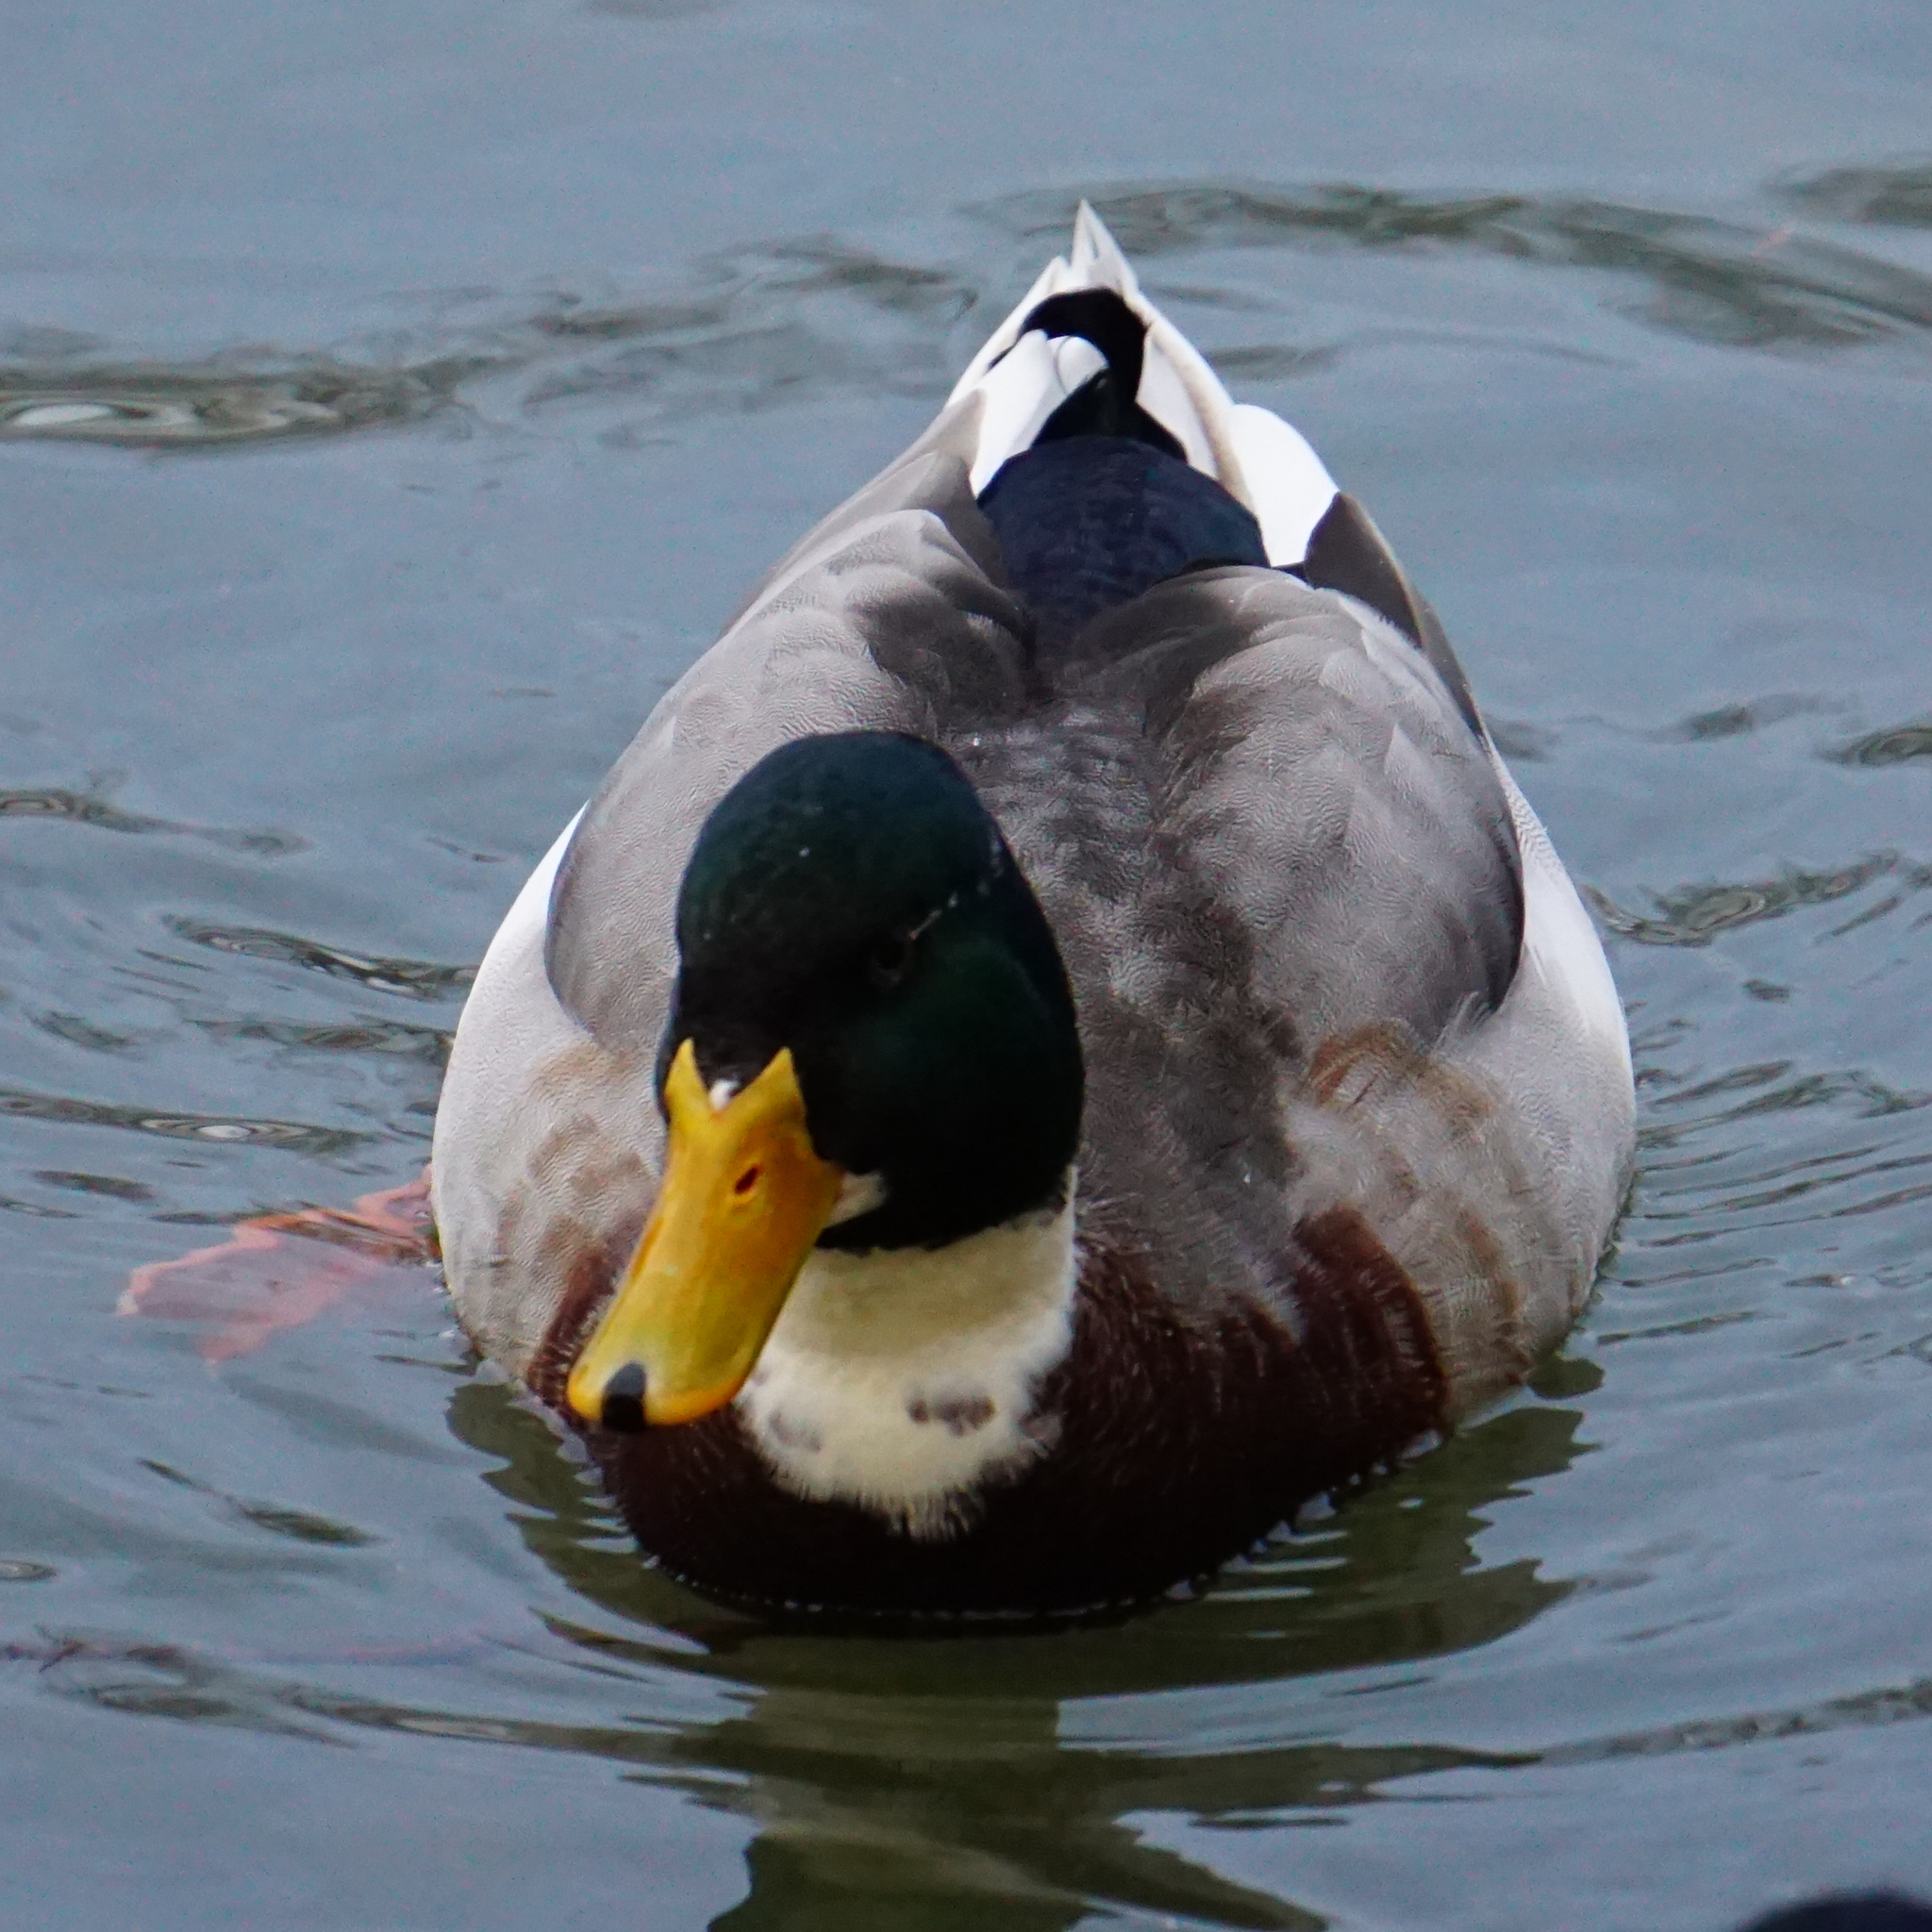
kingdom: Animalia
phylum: Chordata
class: Aves
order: Anseriformes
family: Anatidae
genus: Anas
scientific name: Anas platyrhynchos
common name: Mallard
